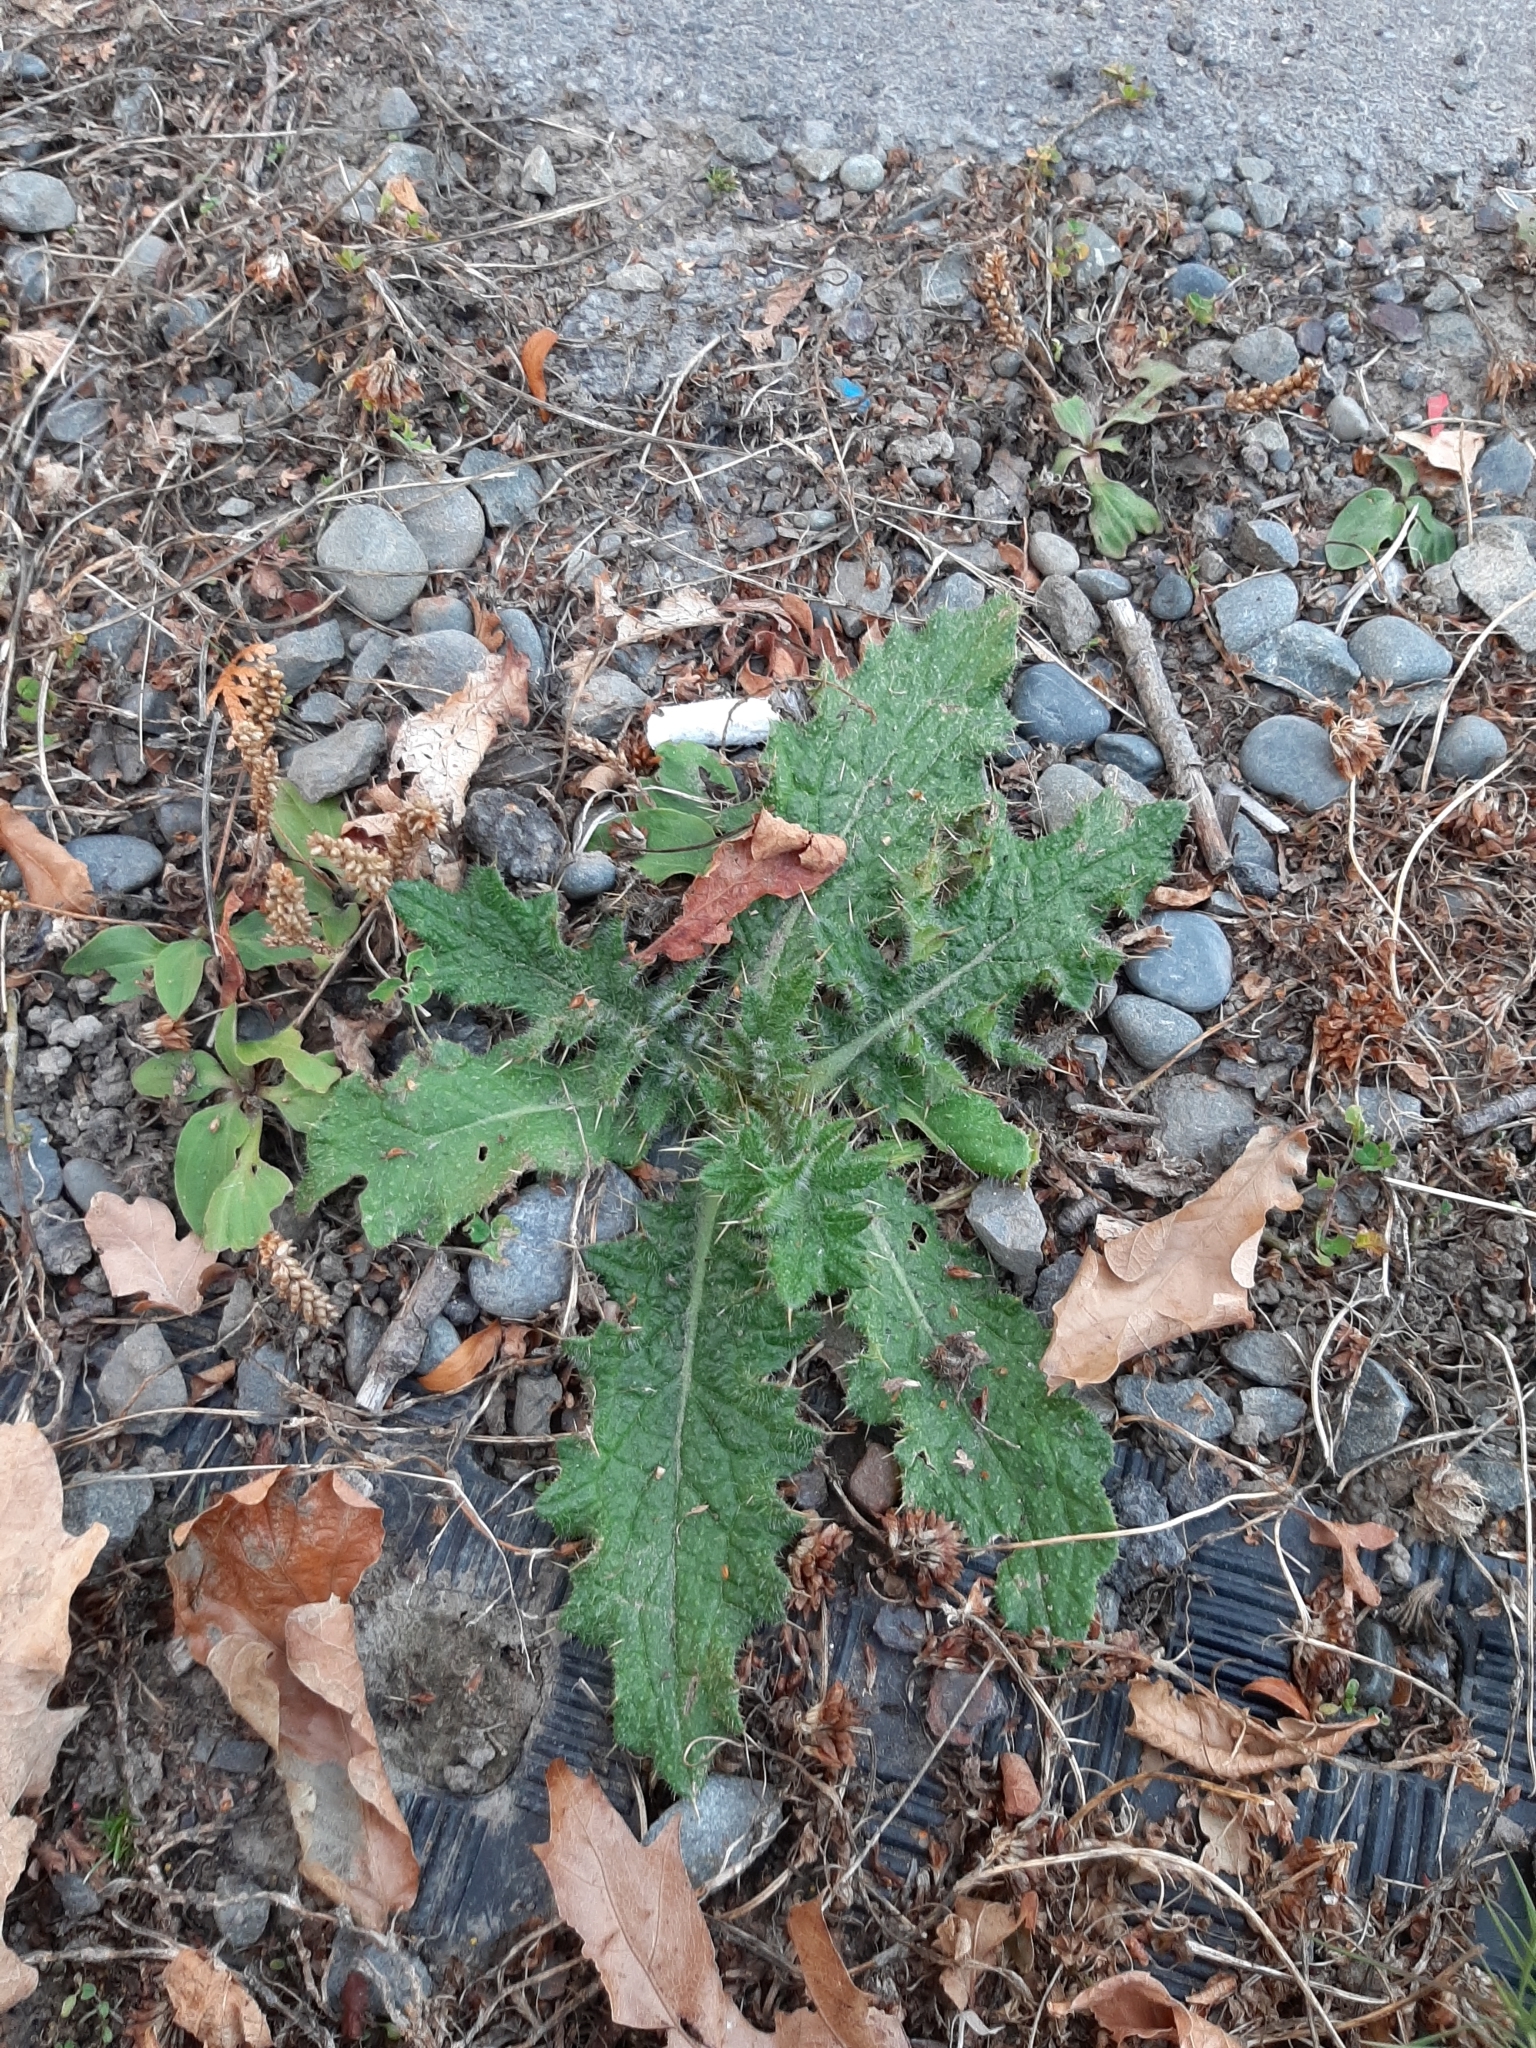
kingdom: Plantae
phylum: Tracheophyta
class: Magnoliopsida
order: Asterales
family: Asteraceae
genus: Cirsium
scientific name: Cirsium vulgare
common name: Bull thistle
